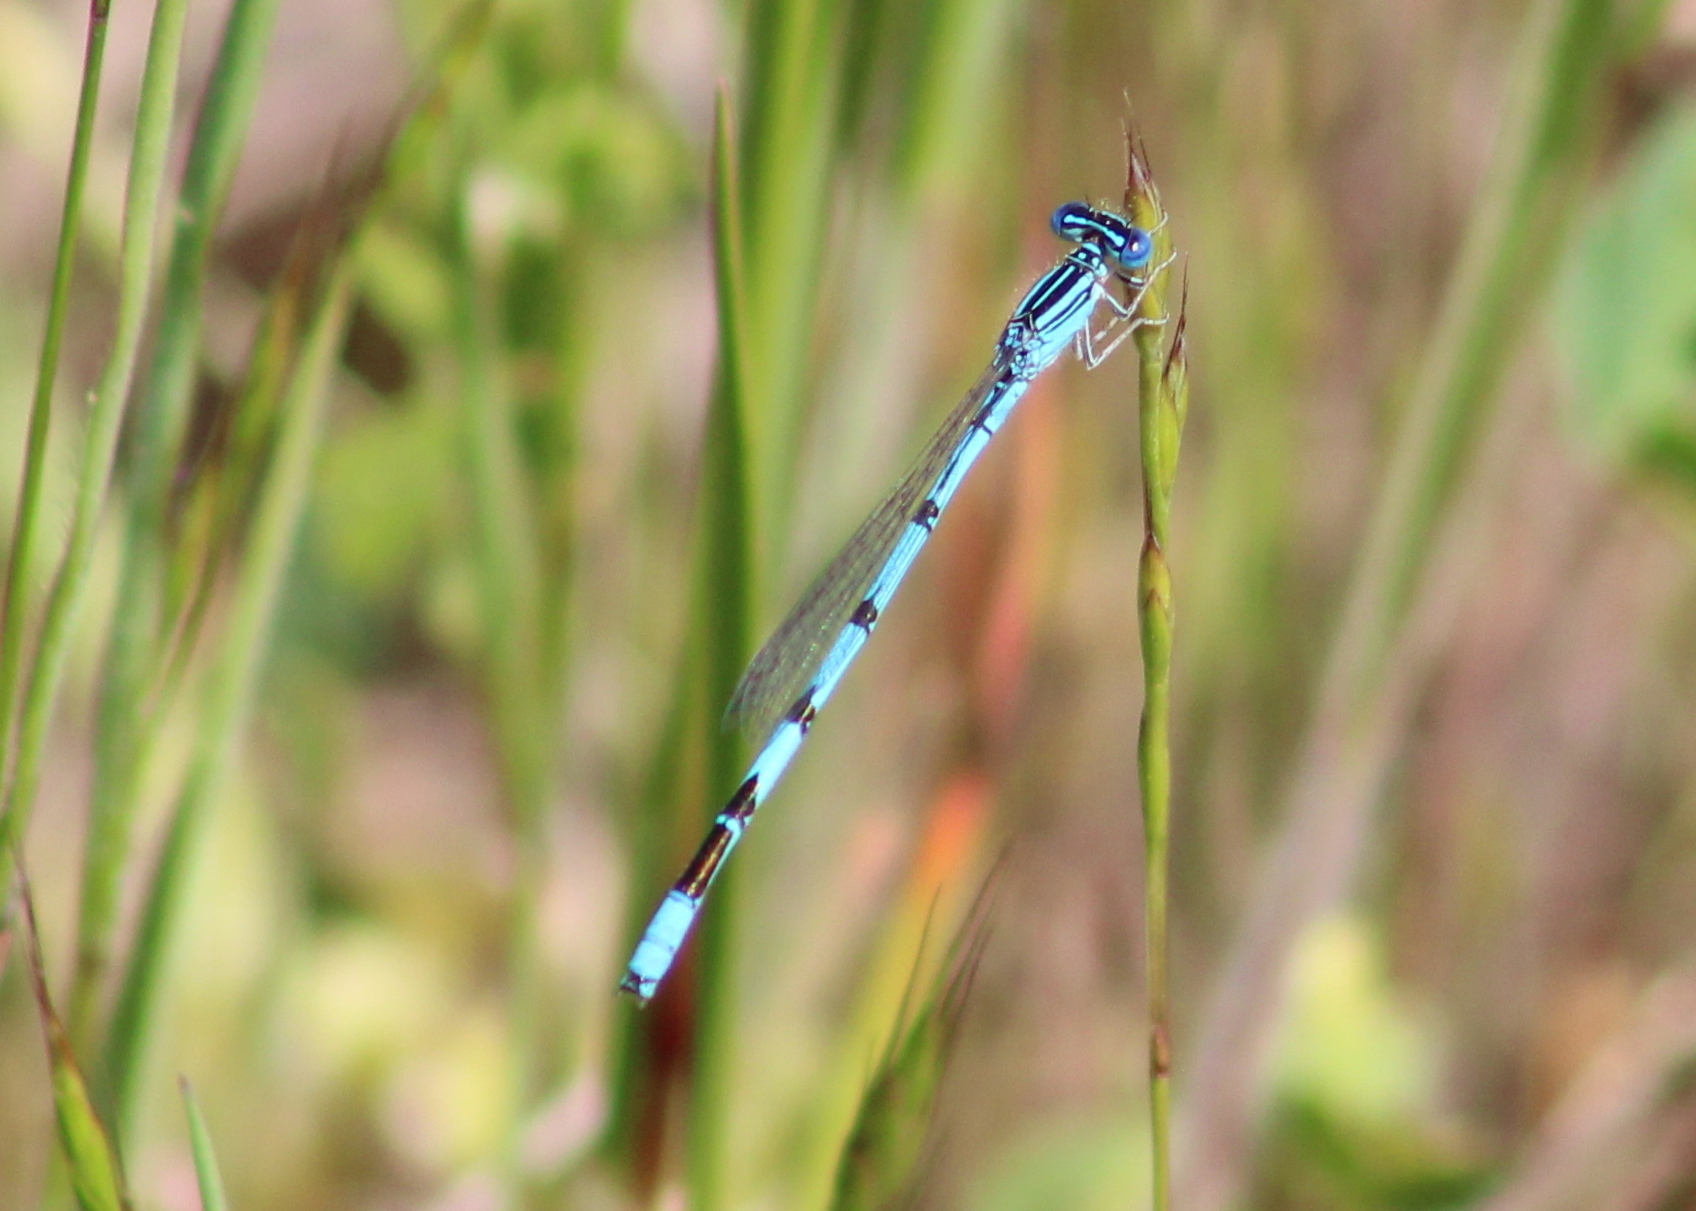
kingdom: Animalia
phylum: Arthropoda
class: Insecta
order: Odonata
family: Coenagrionidae
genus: Enallagma
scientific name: Enallagma basidens
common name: Double-striped bluet
